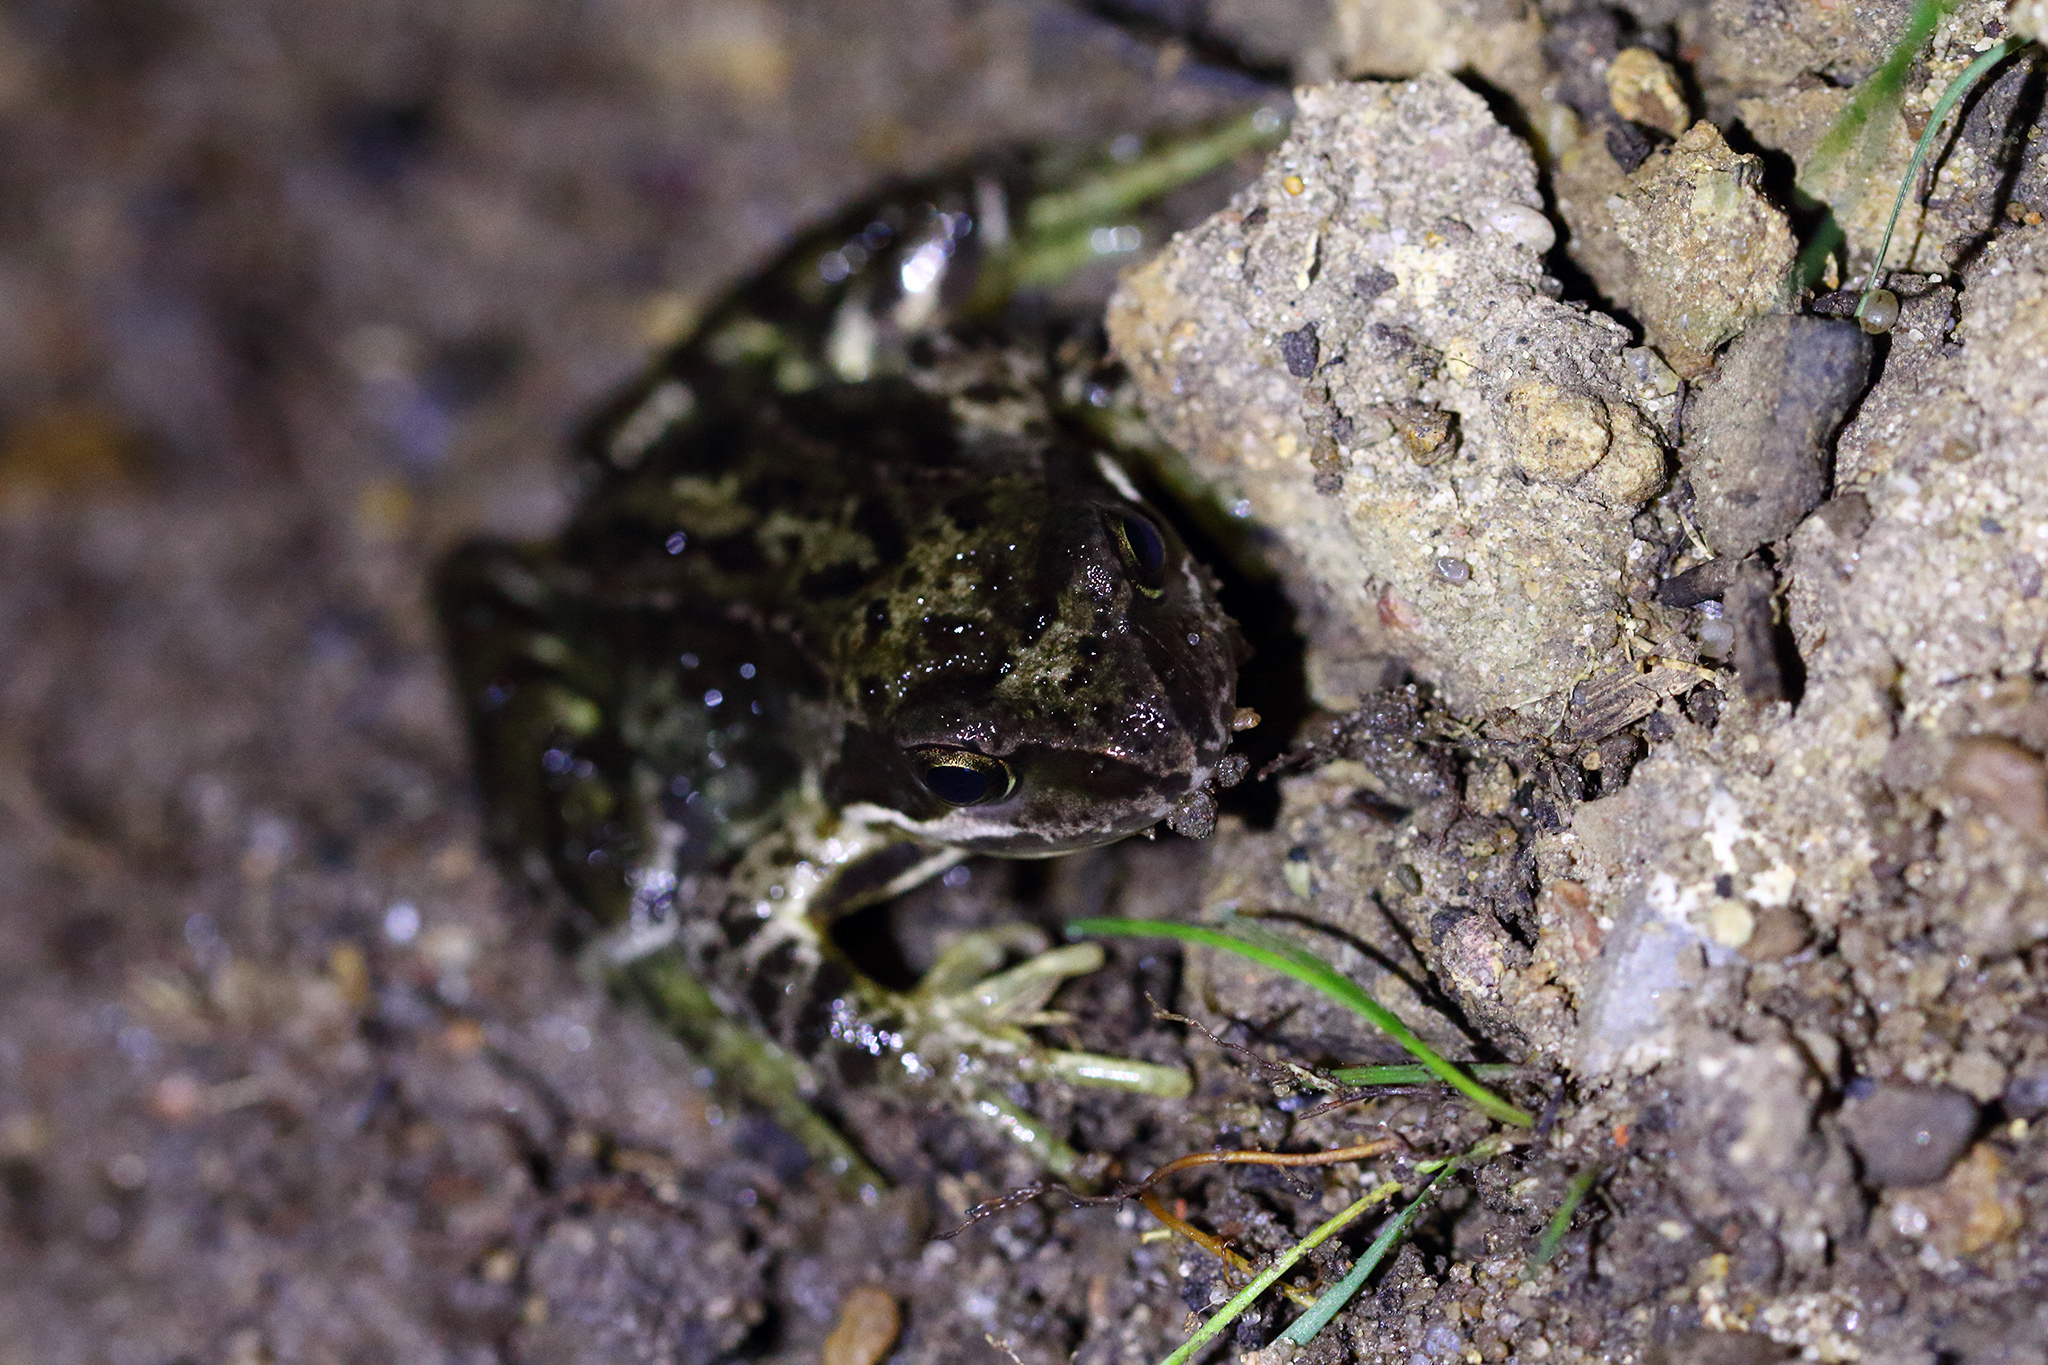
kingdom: Animalia
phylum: Chordata
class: Amphibia
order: Anura
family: Ranidae
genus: Rana
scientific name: Rana temporaria
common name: Common frog
